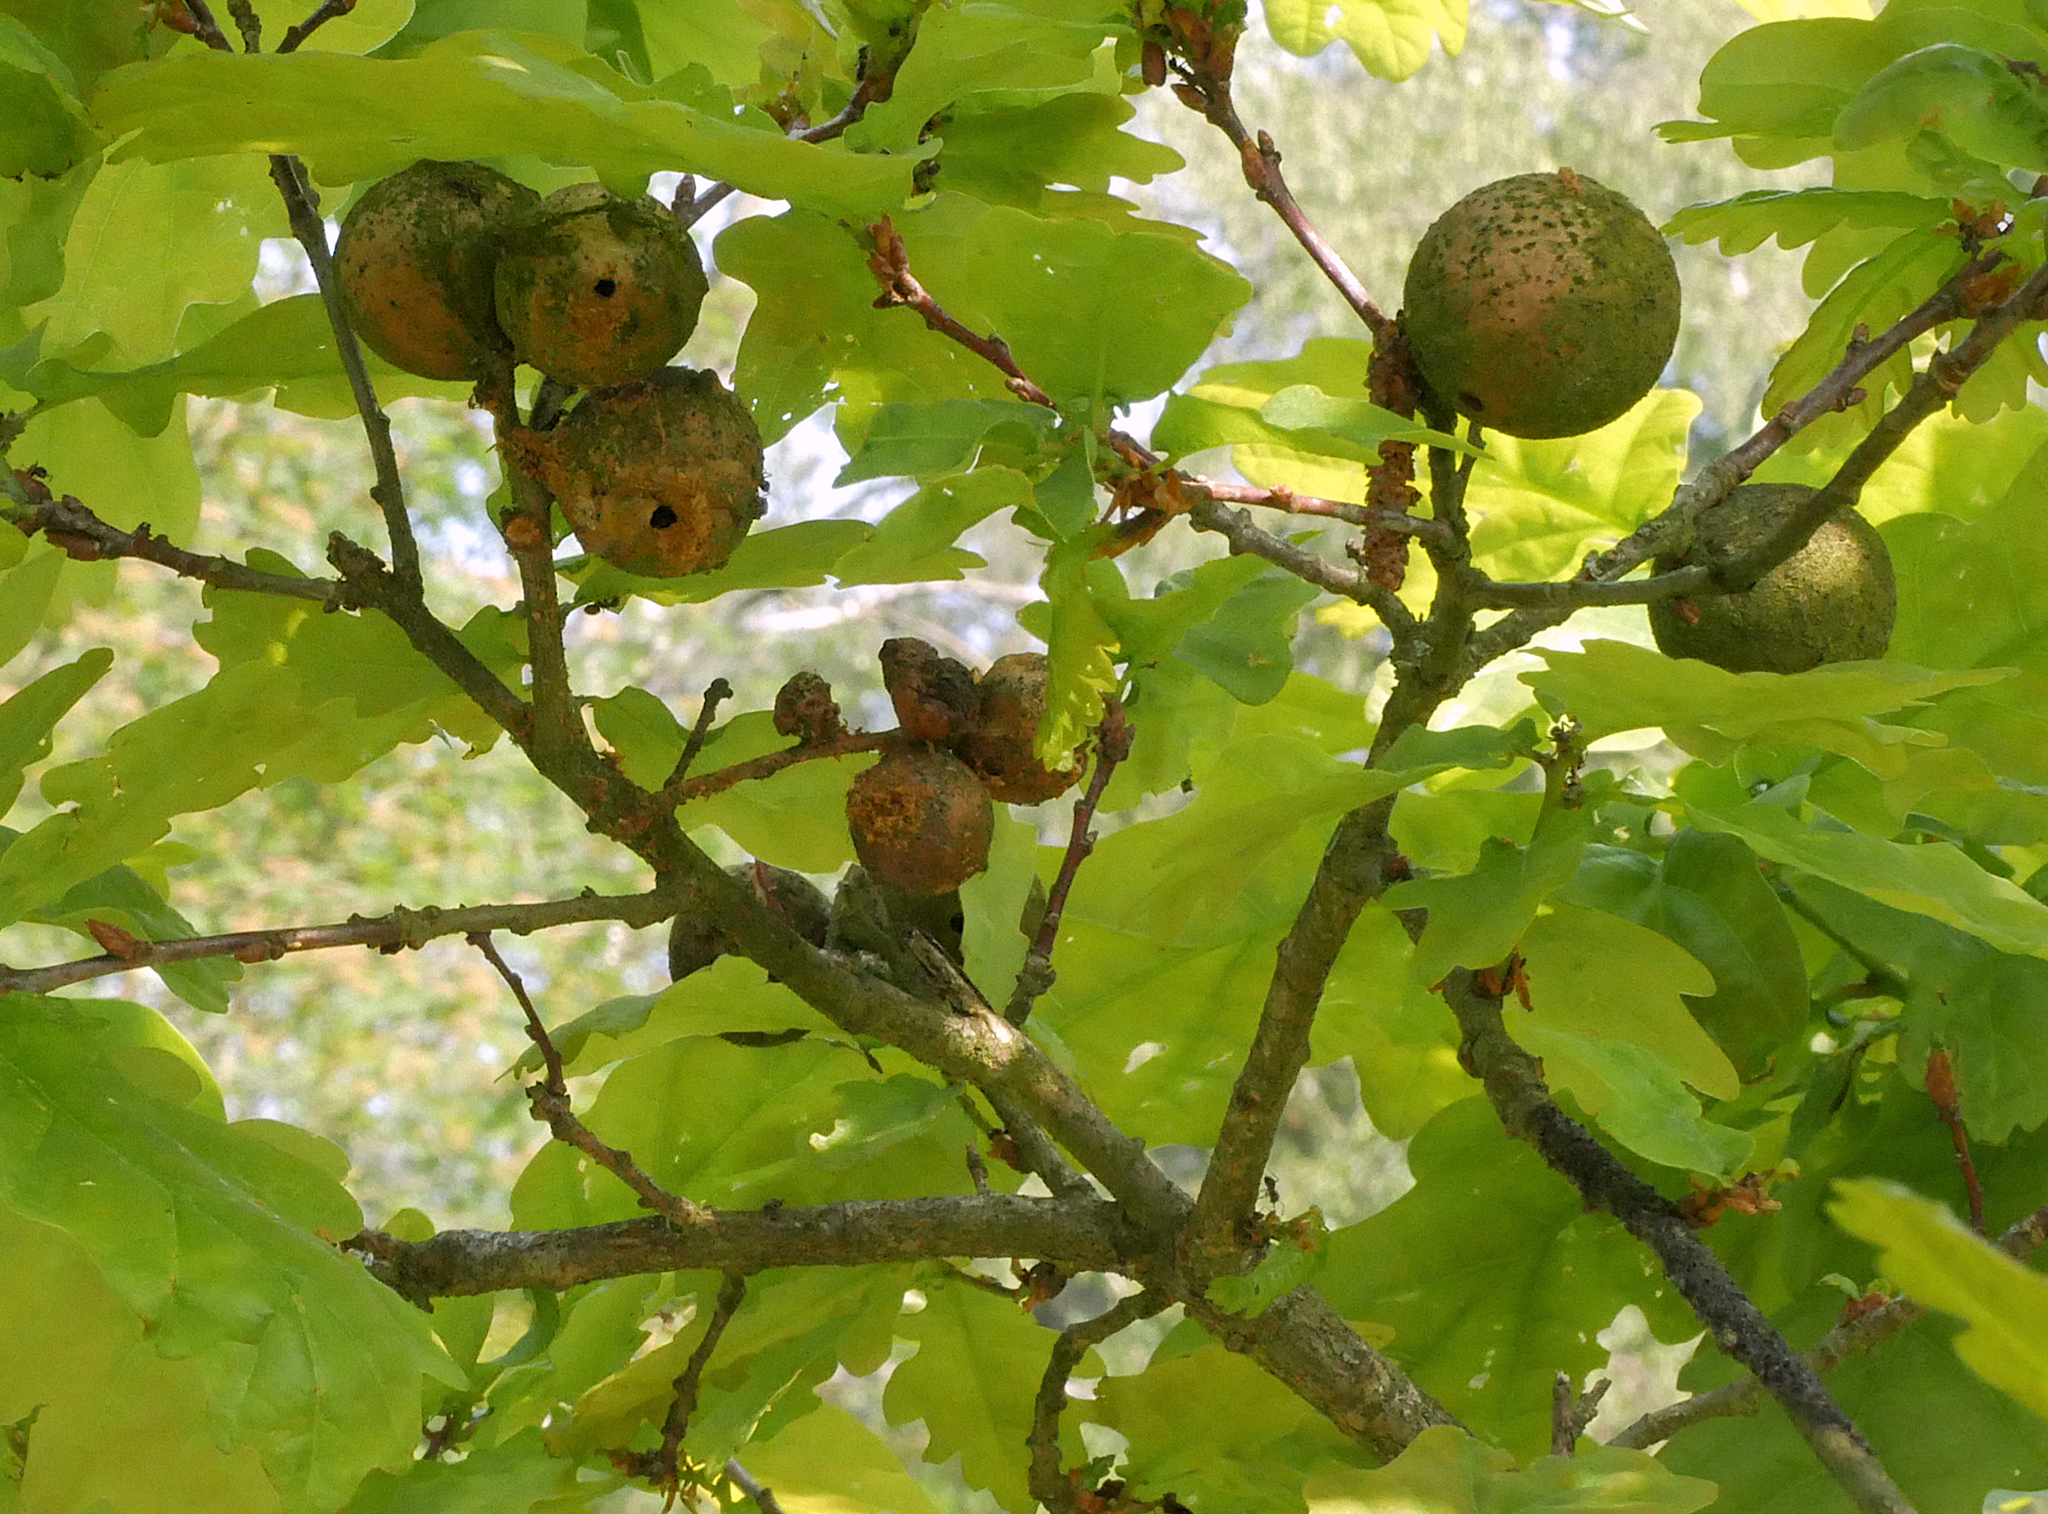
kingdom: Animalia
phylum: Arthropoda
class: Insecta
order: Hymenoptera
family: Cynipidae
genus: Andricus
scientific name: Andricus kollari
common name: Marble gall
